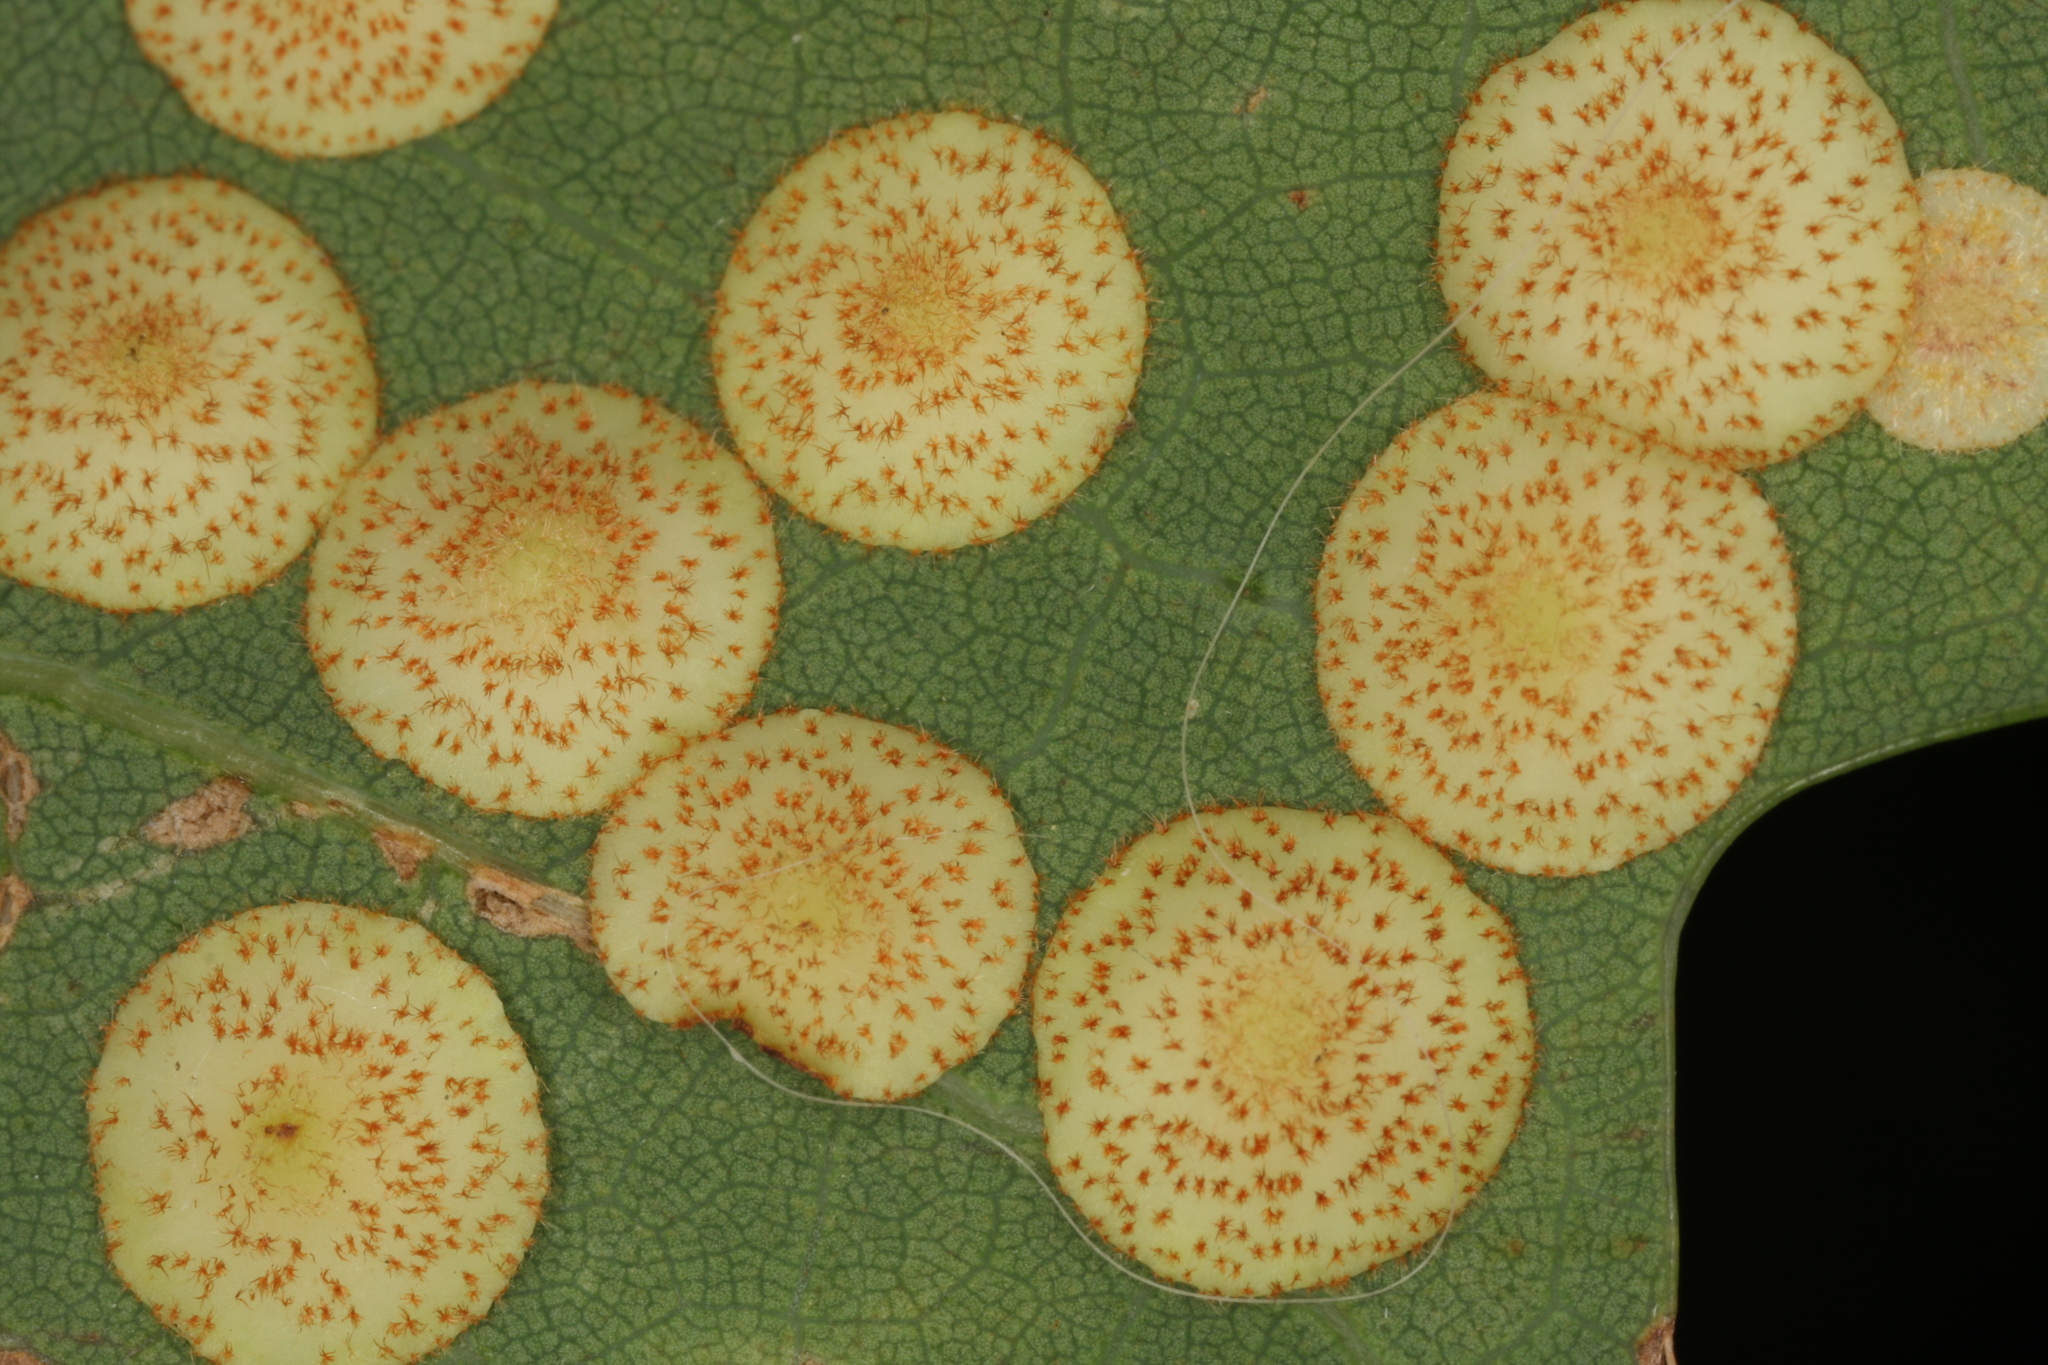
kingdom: Animalia
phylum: Arthropoda
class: Insecta
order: Hymenoptera
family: Cynipidae
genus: Neuroterus
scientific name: Neuroterus quercusbaccarum
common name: Common spangle gall
